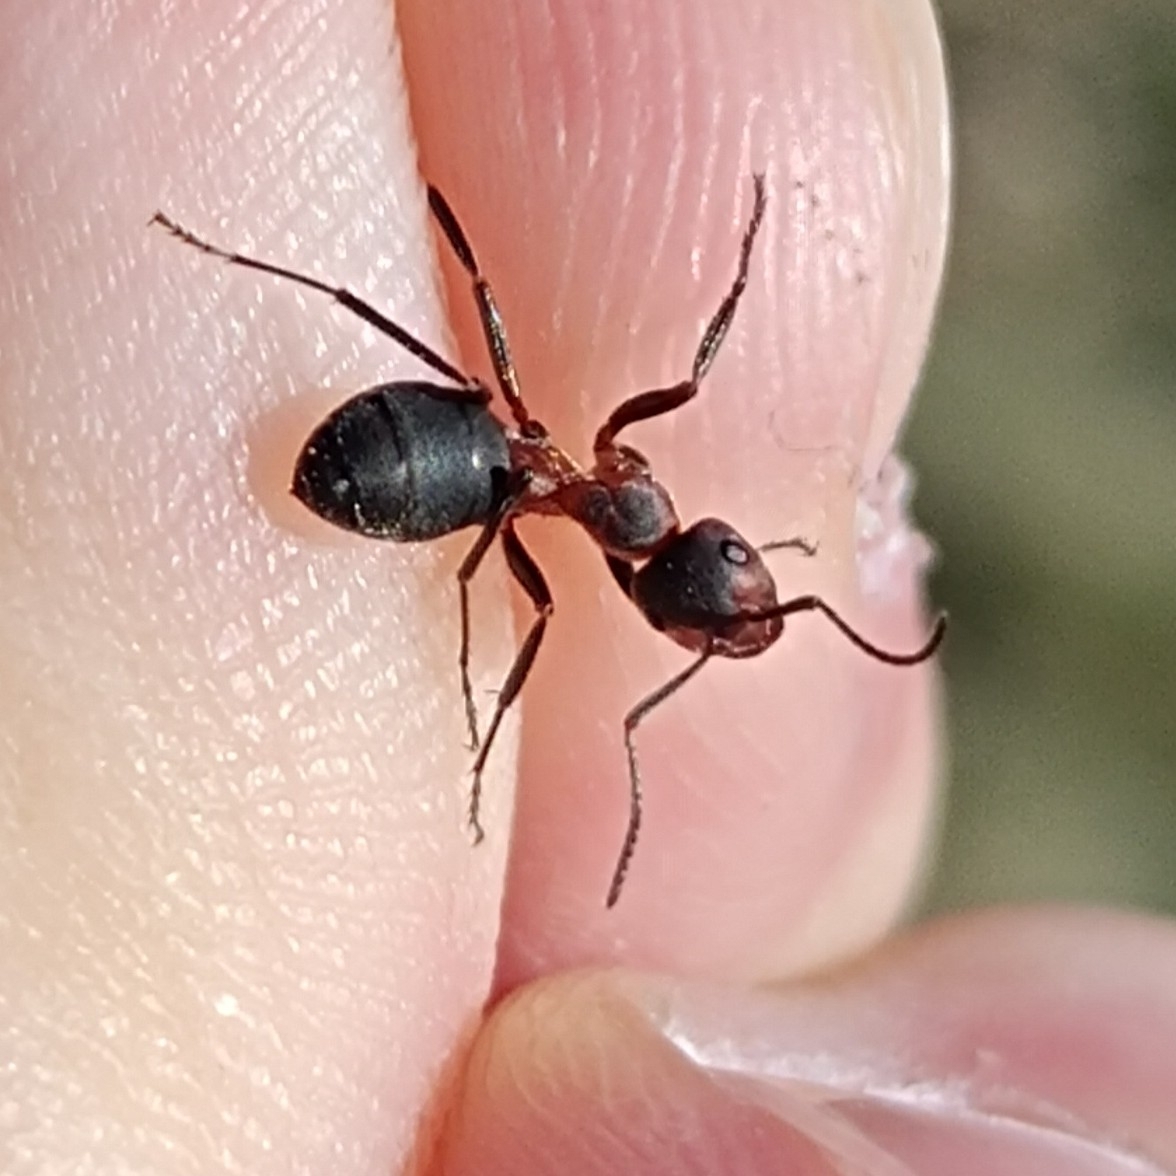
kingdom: Animalia
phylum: Arthropoda
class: Insecta
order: Hymenoptera
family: Formicidae
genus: Formica
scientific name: Formica pratensis
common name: European red wood ant
